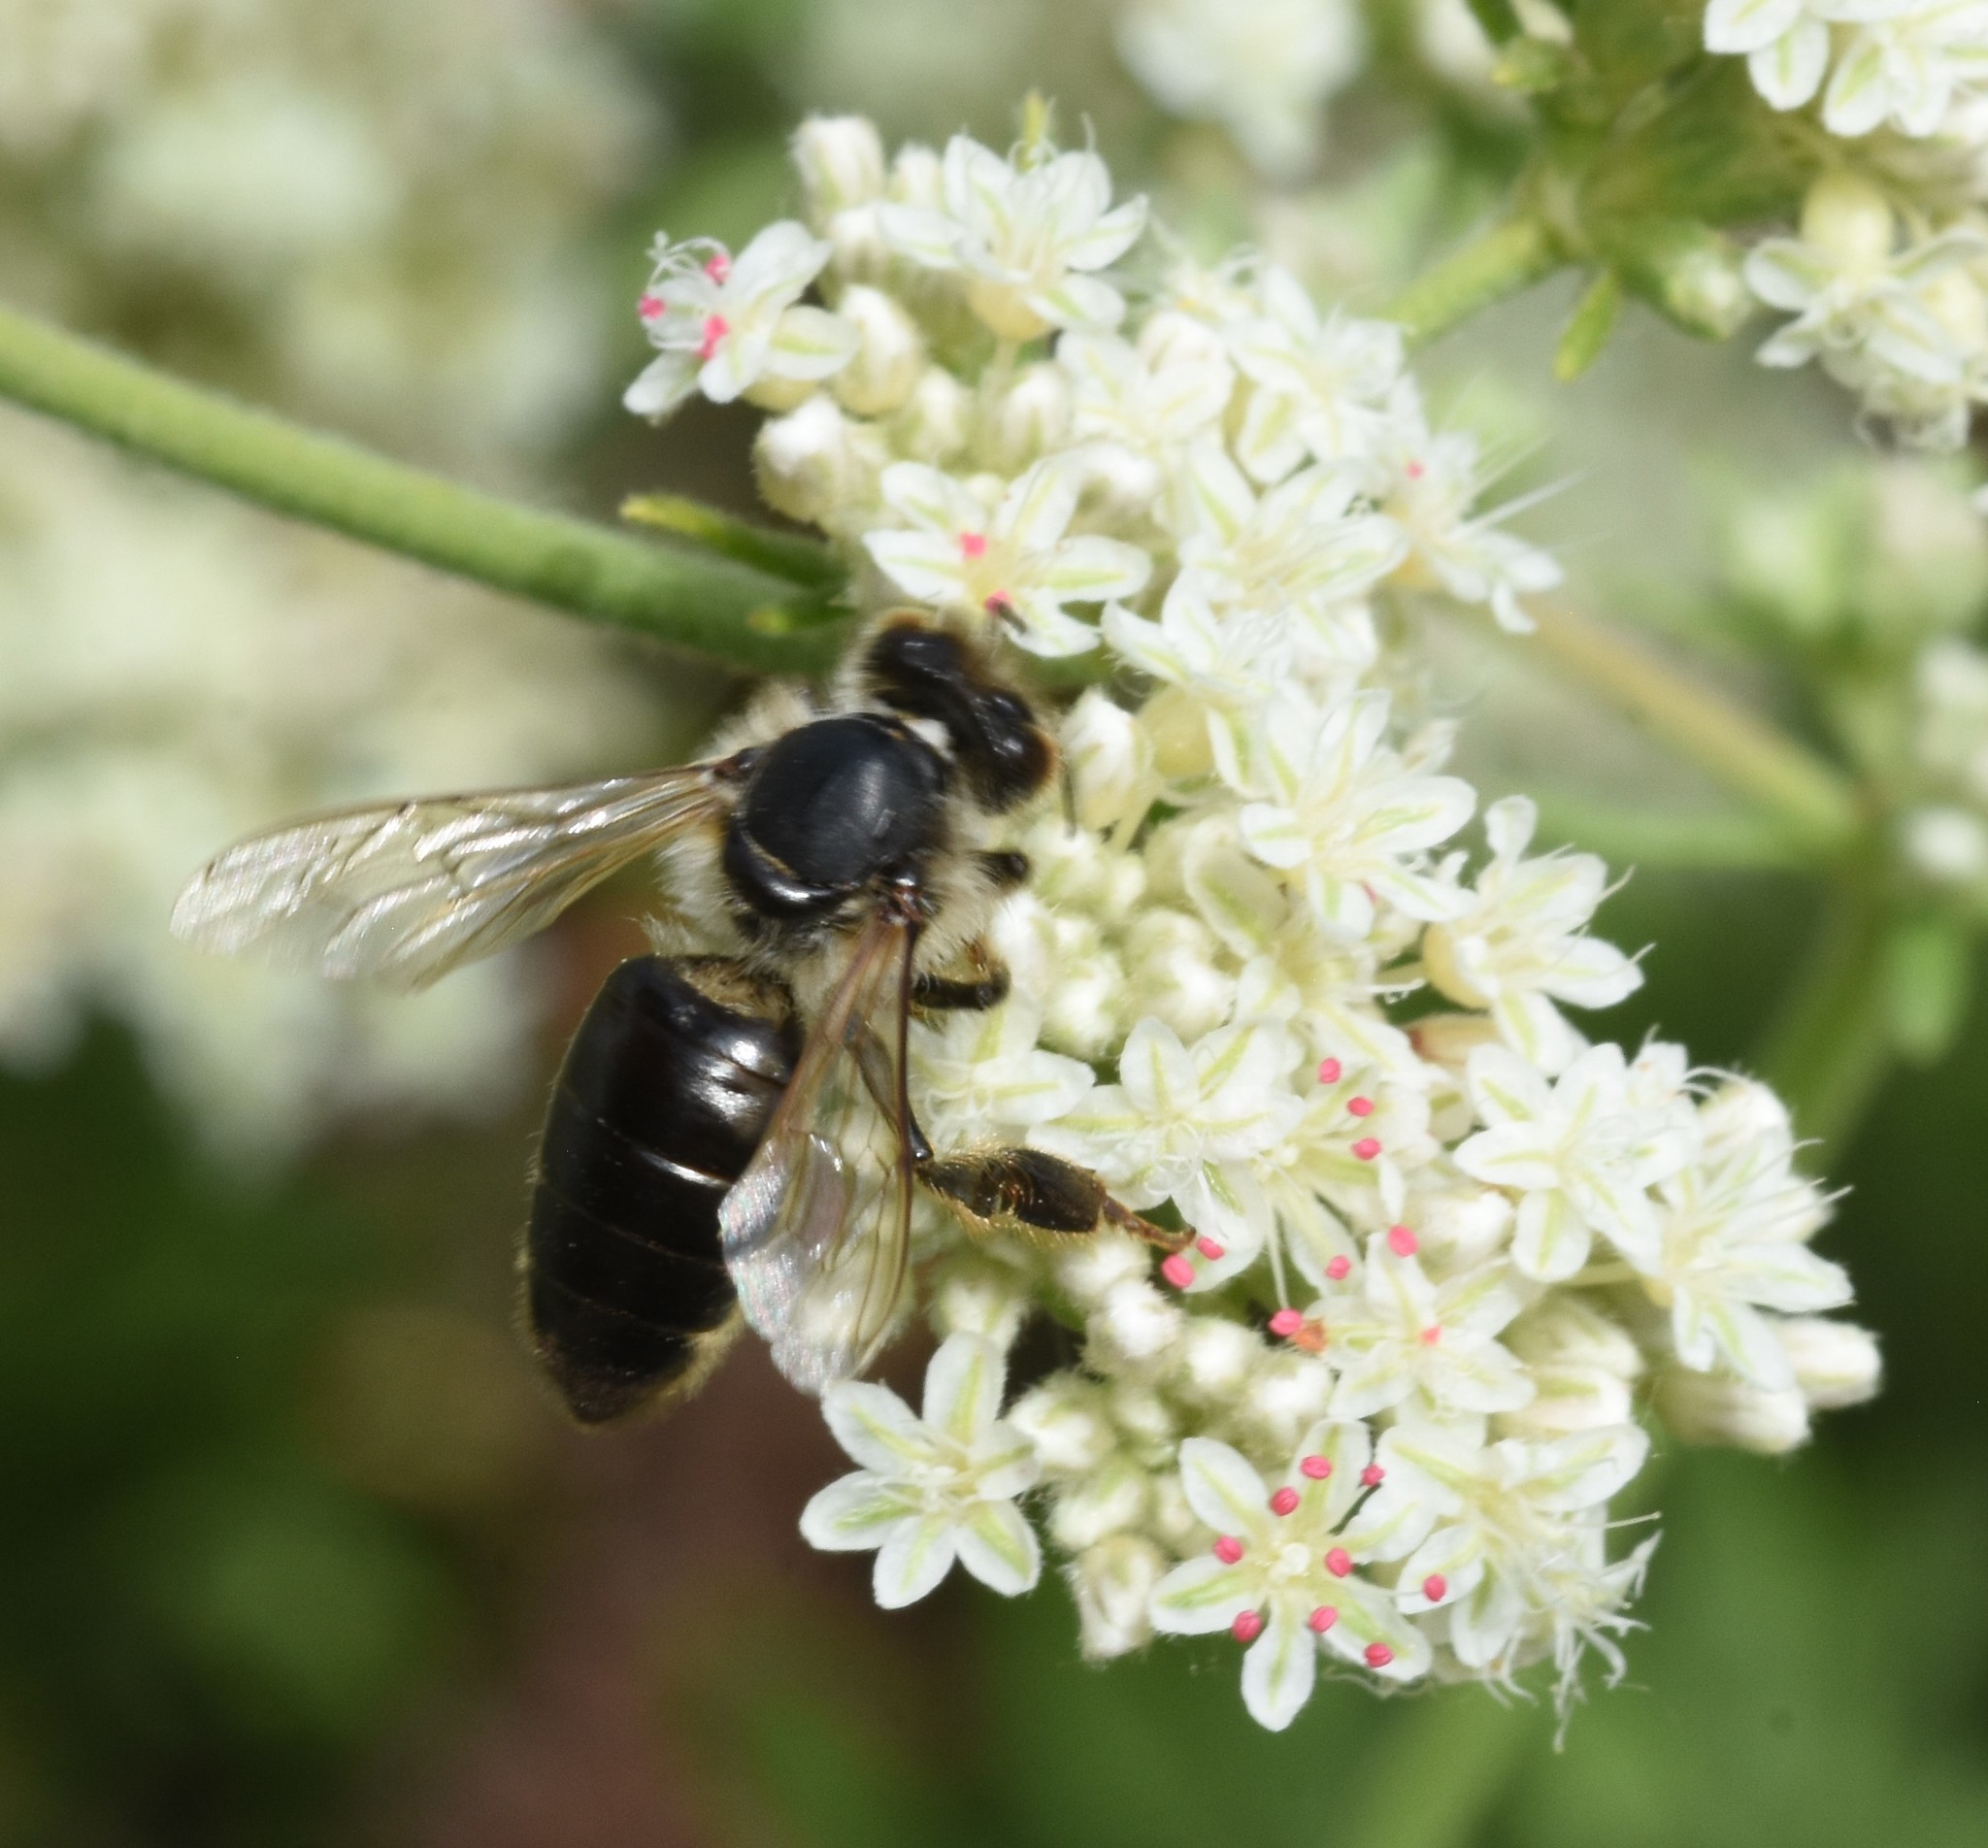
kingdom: Animalia
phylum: Arthropoda
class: Insecta
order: Hymenoptera
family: Apidae
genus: Apis
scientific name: Apis mellifera
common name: Honey bee
